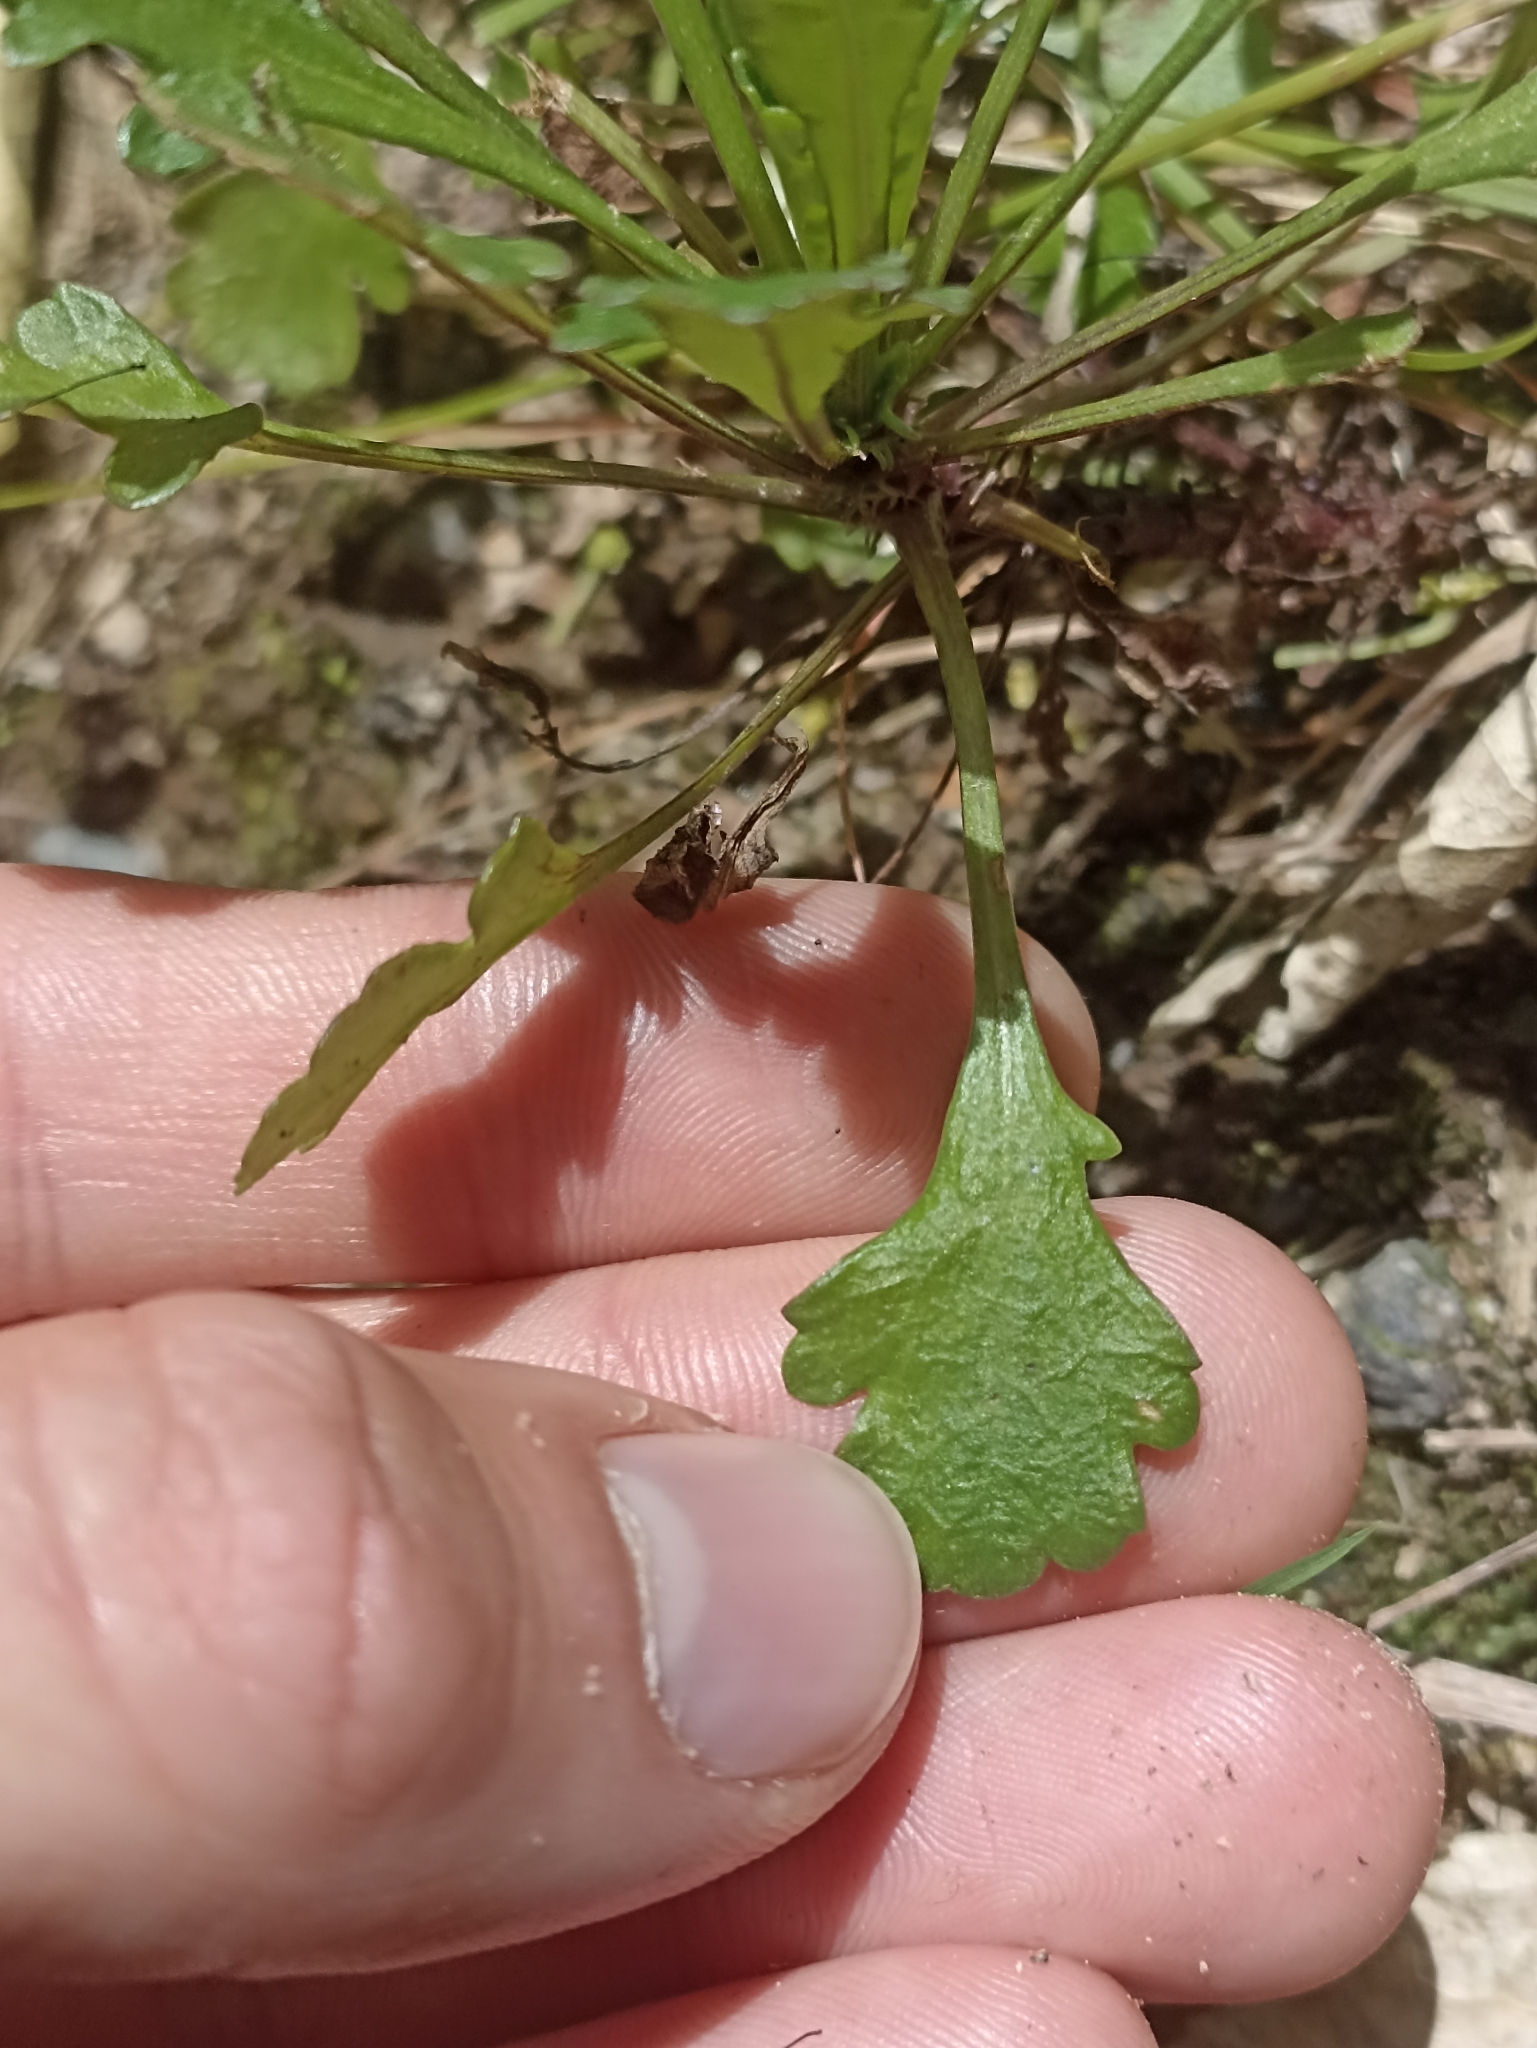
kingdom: Plantae
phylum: Tracheophyta
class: Magnoliopsida
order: Asterales
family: Asteraceae
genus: Leucanthemum
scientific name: Leucanthemum vulgare
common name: Oxeye daisy
